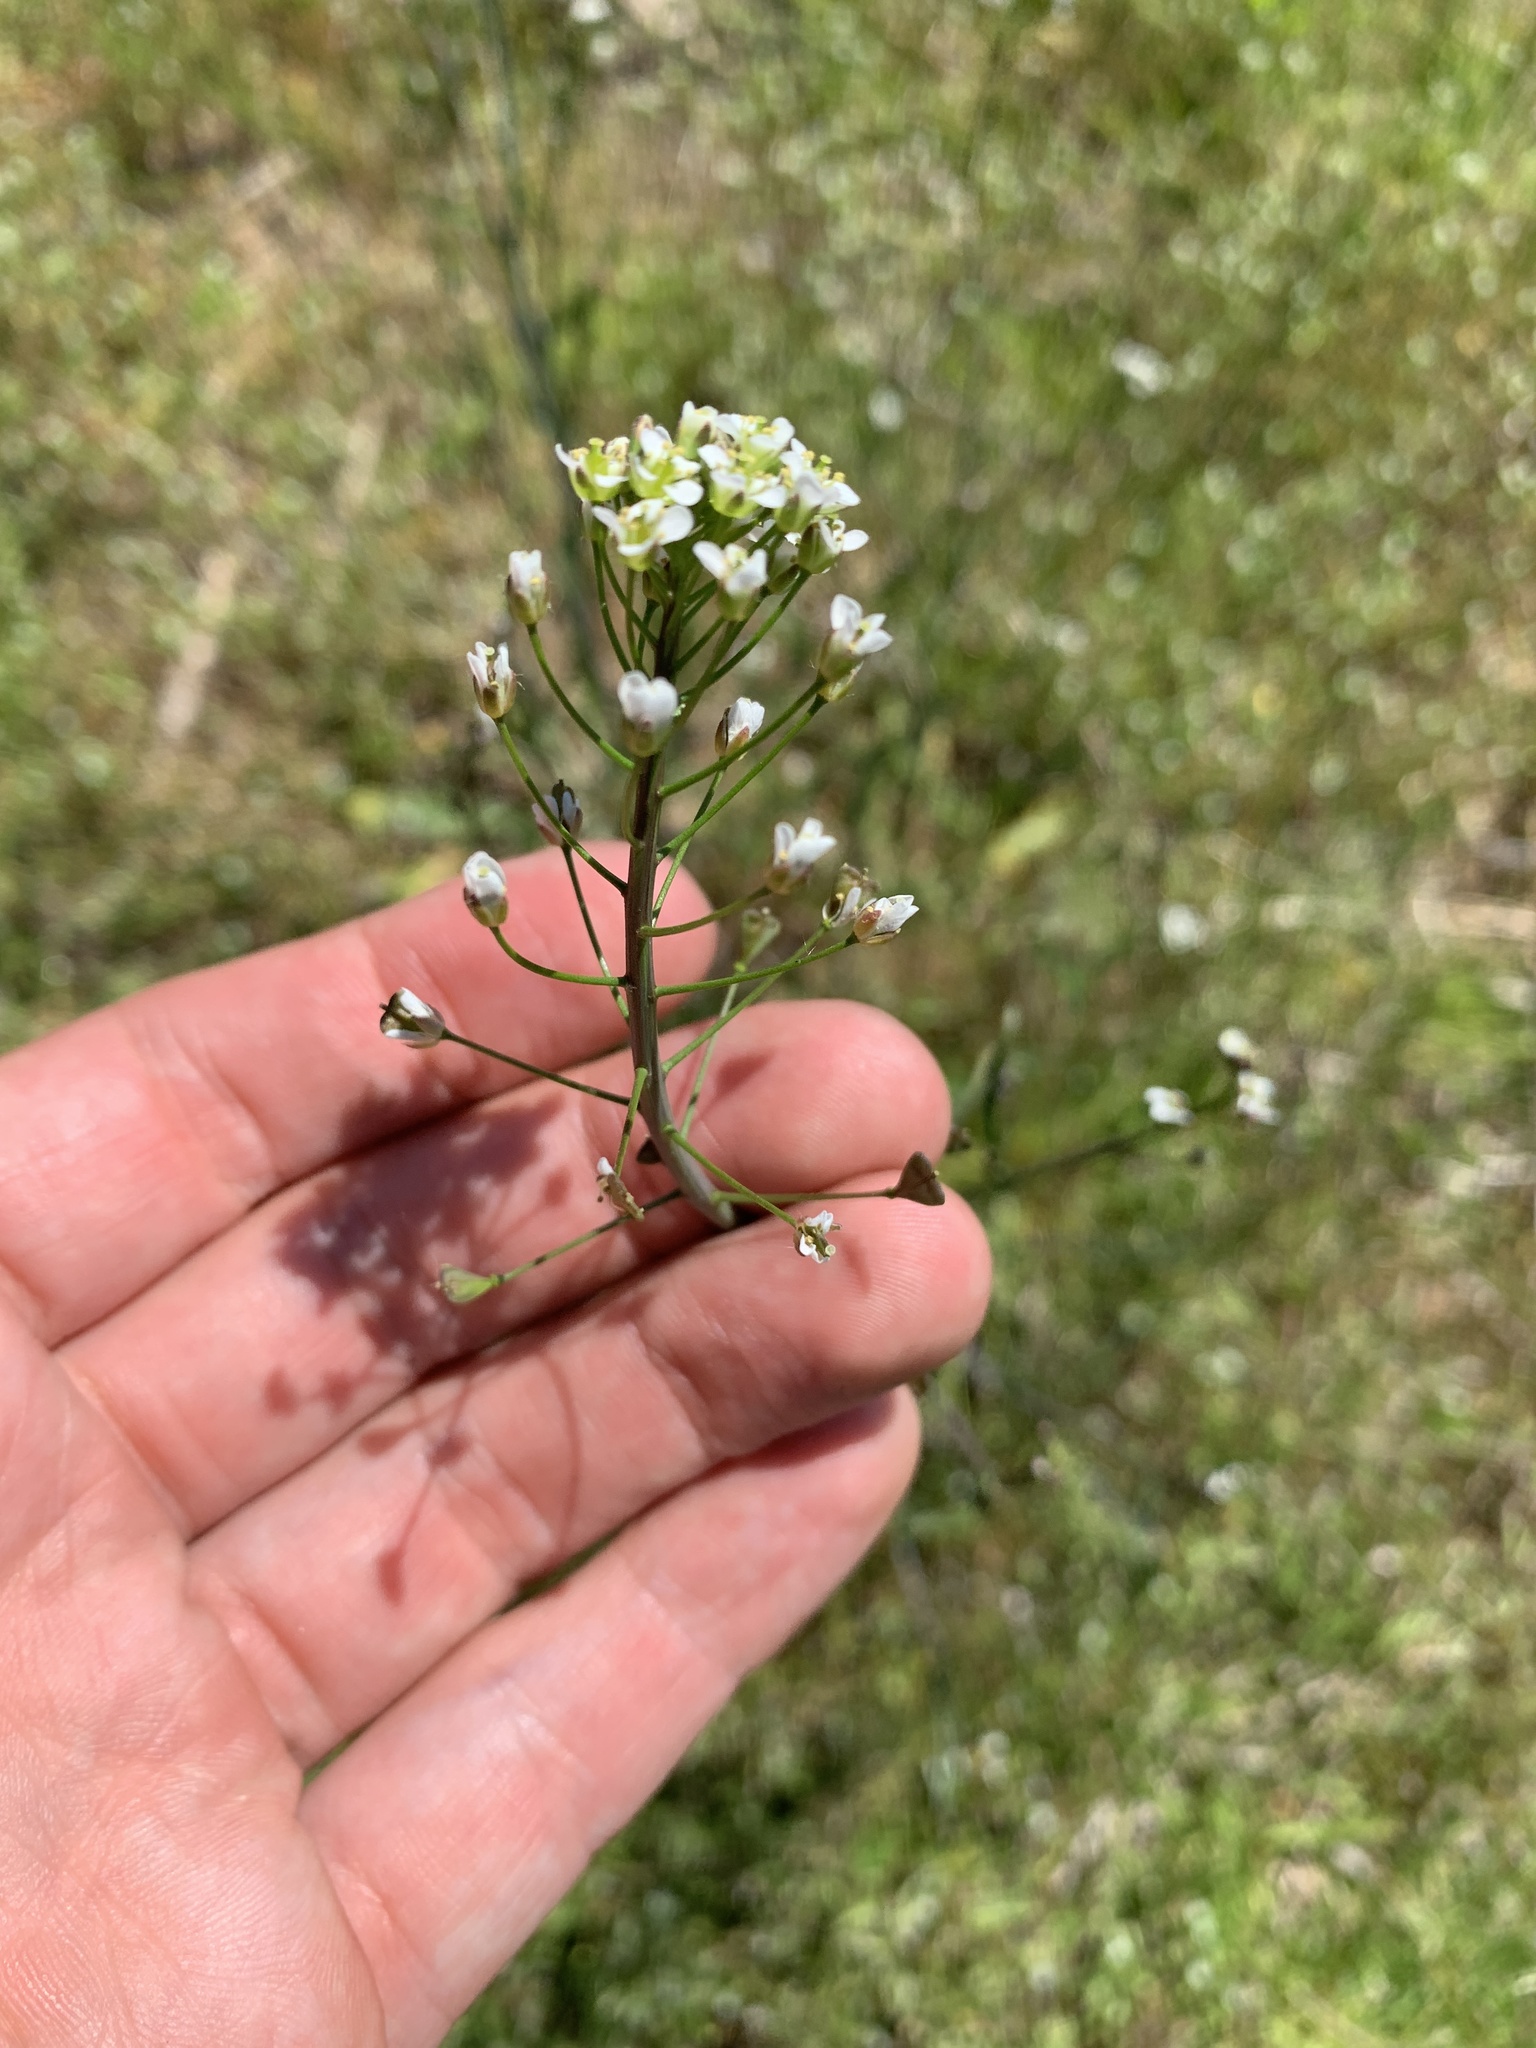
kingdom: Plantae
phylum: Tracheophyta
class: Magnoliopsida
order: Brassicales
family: Brassicaceae
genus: Capsella
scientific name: Capsella bursa-pastoris
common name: Shepherd's purse
